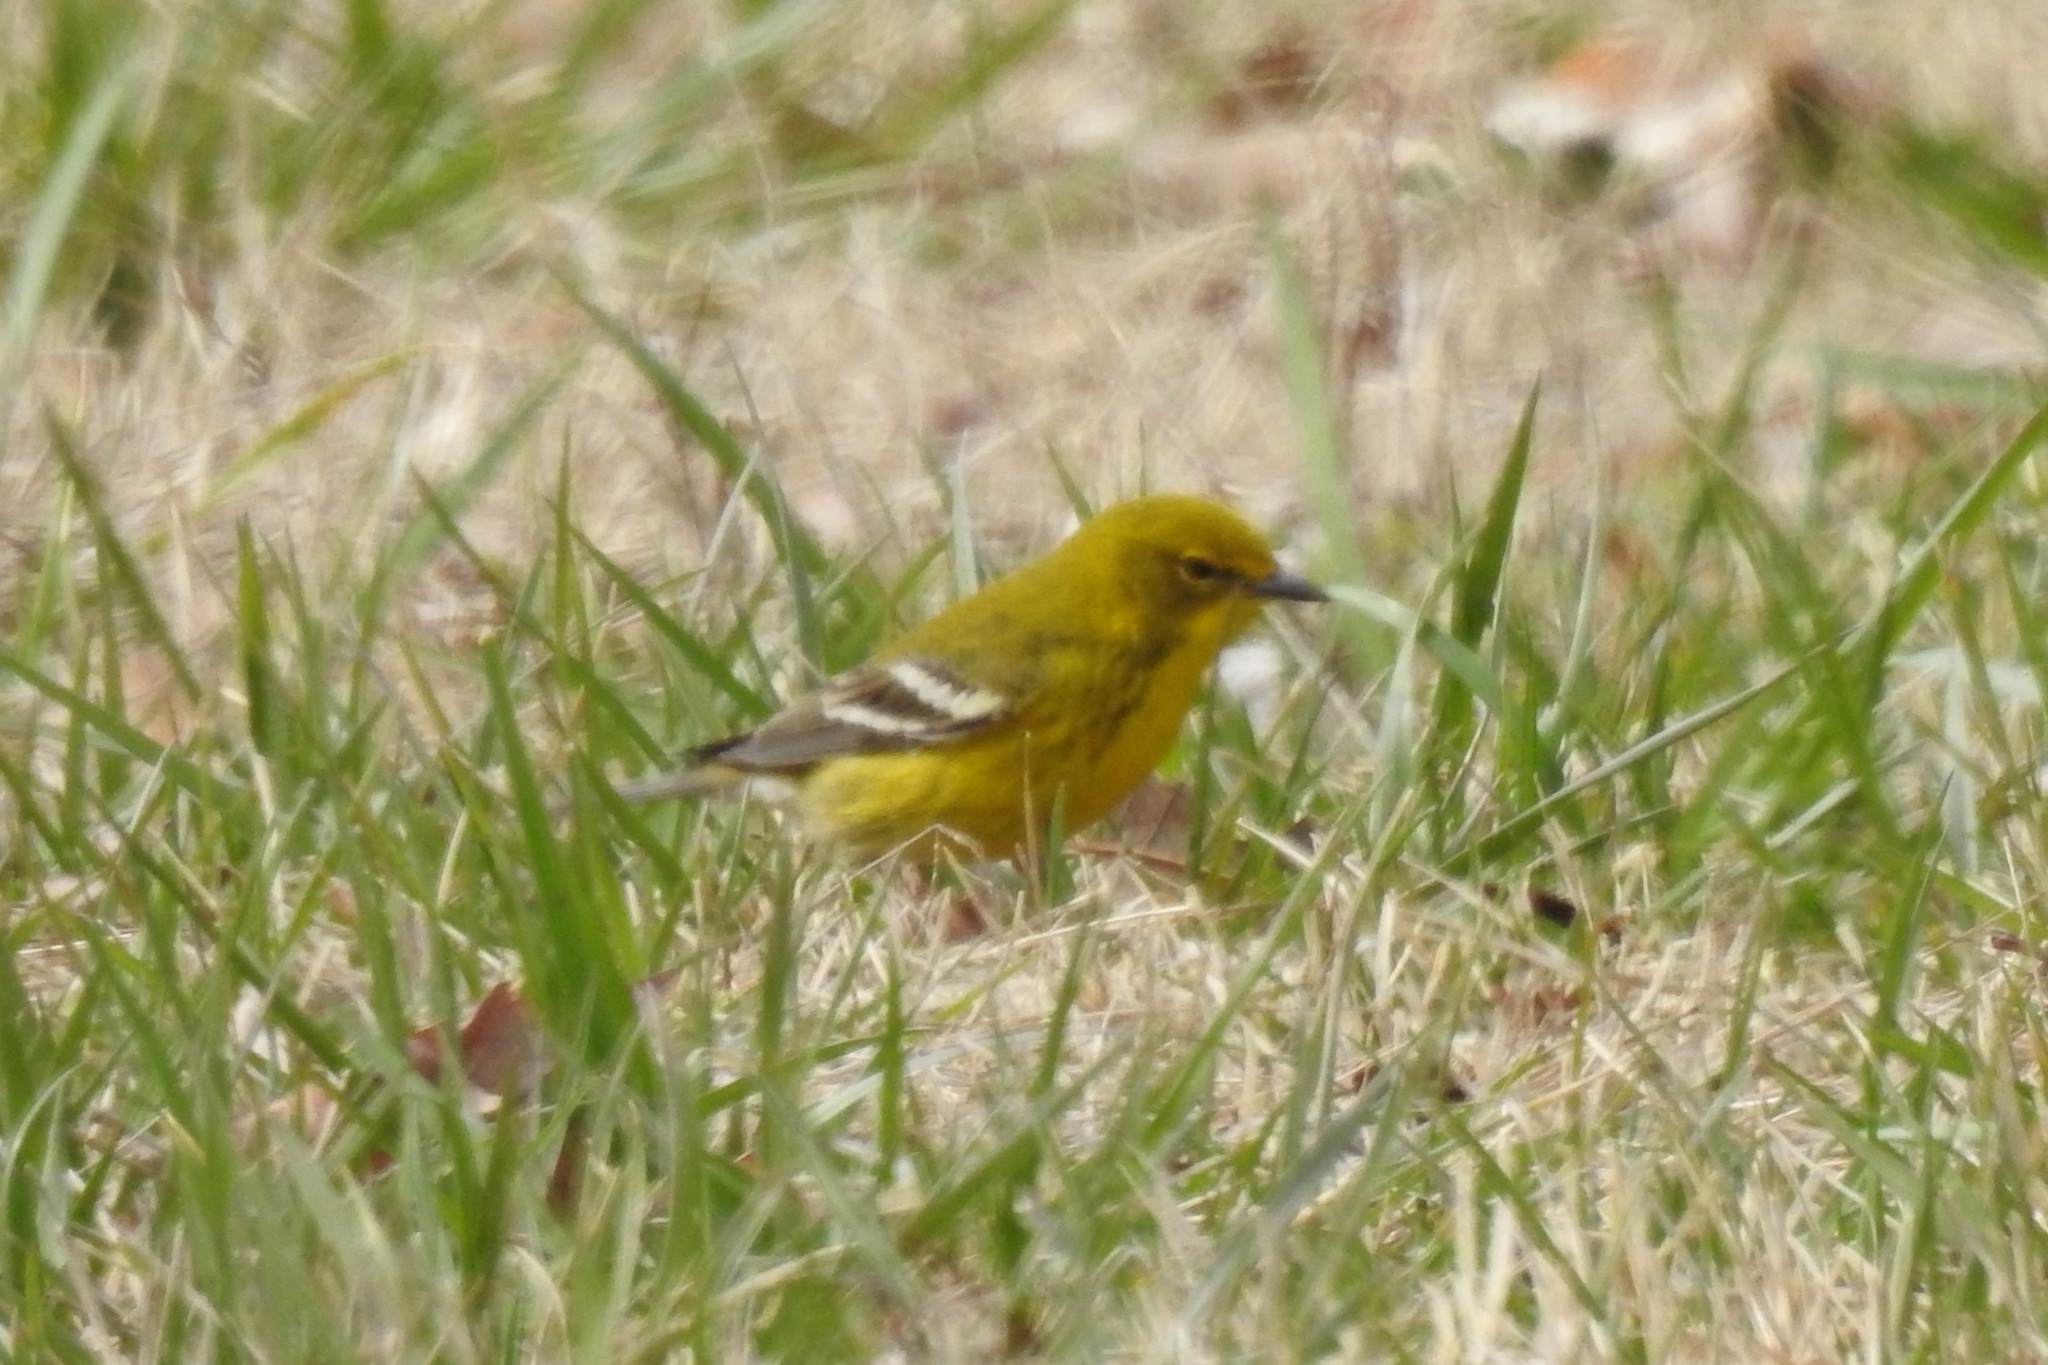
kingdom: Animalia
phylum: Chordata
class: Aves
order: Passeriformes
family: Parulidae
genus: Setophaga
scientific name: Setophaga pinus
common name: Pine warbler
